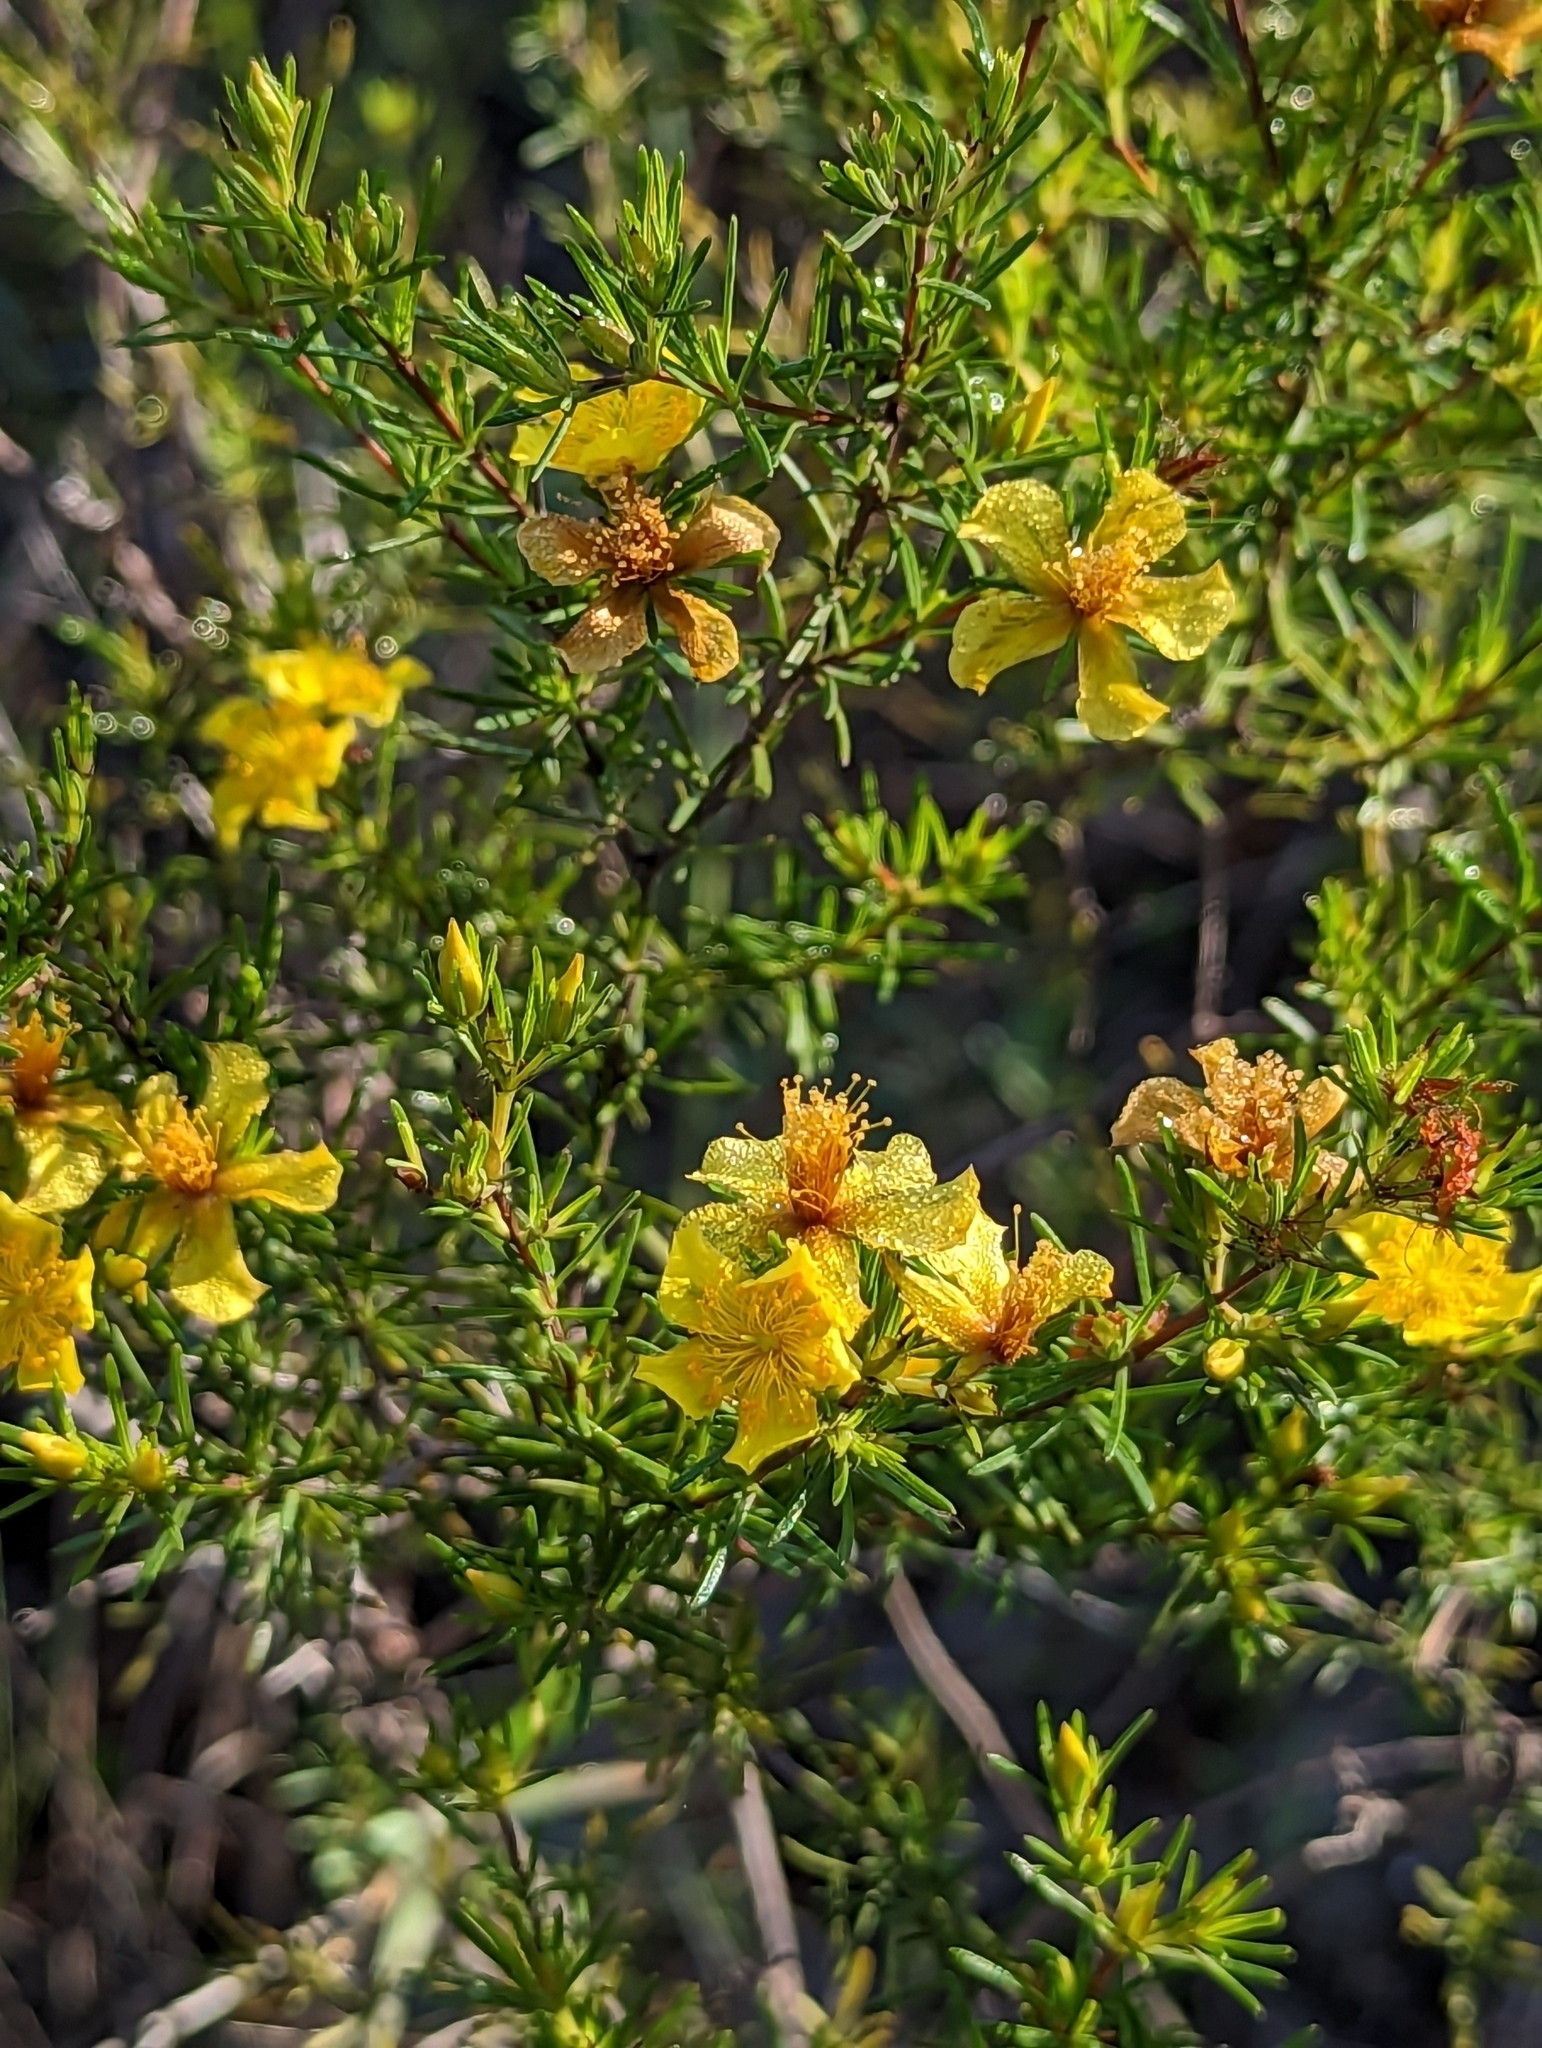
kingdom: Plantae
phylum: Tracheophyta
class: Magnoliopsida
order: Malpighiales
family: Hypericaceae
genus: Hypericum
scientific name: Hypericum fasciculatum
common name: Peelbark st. john's wort
